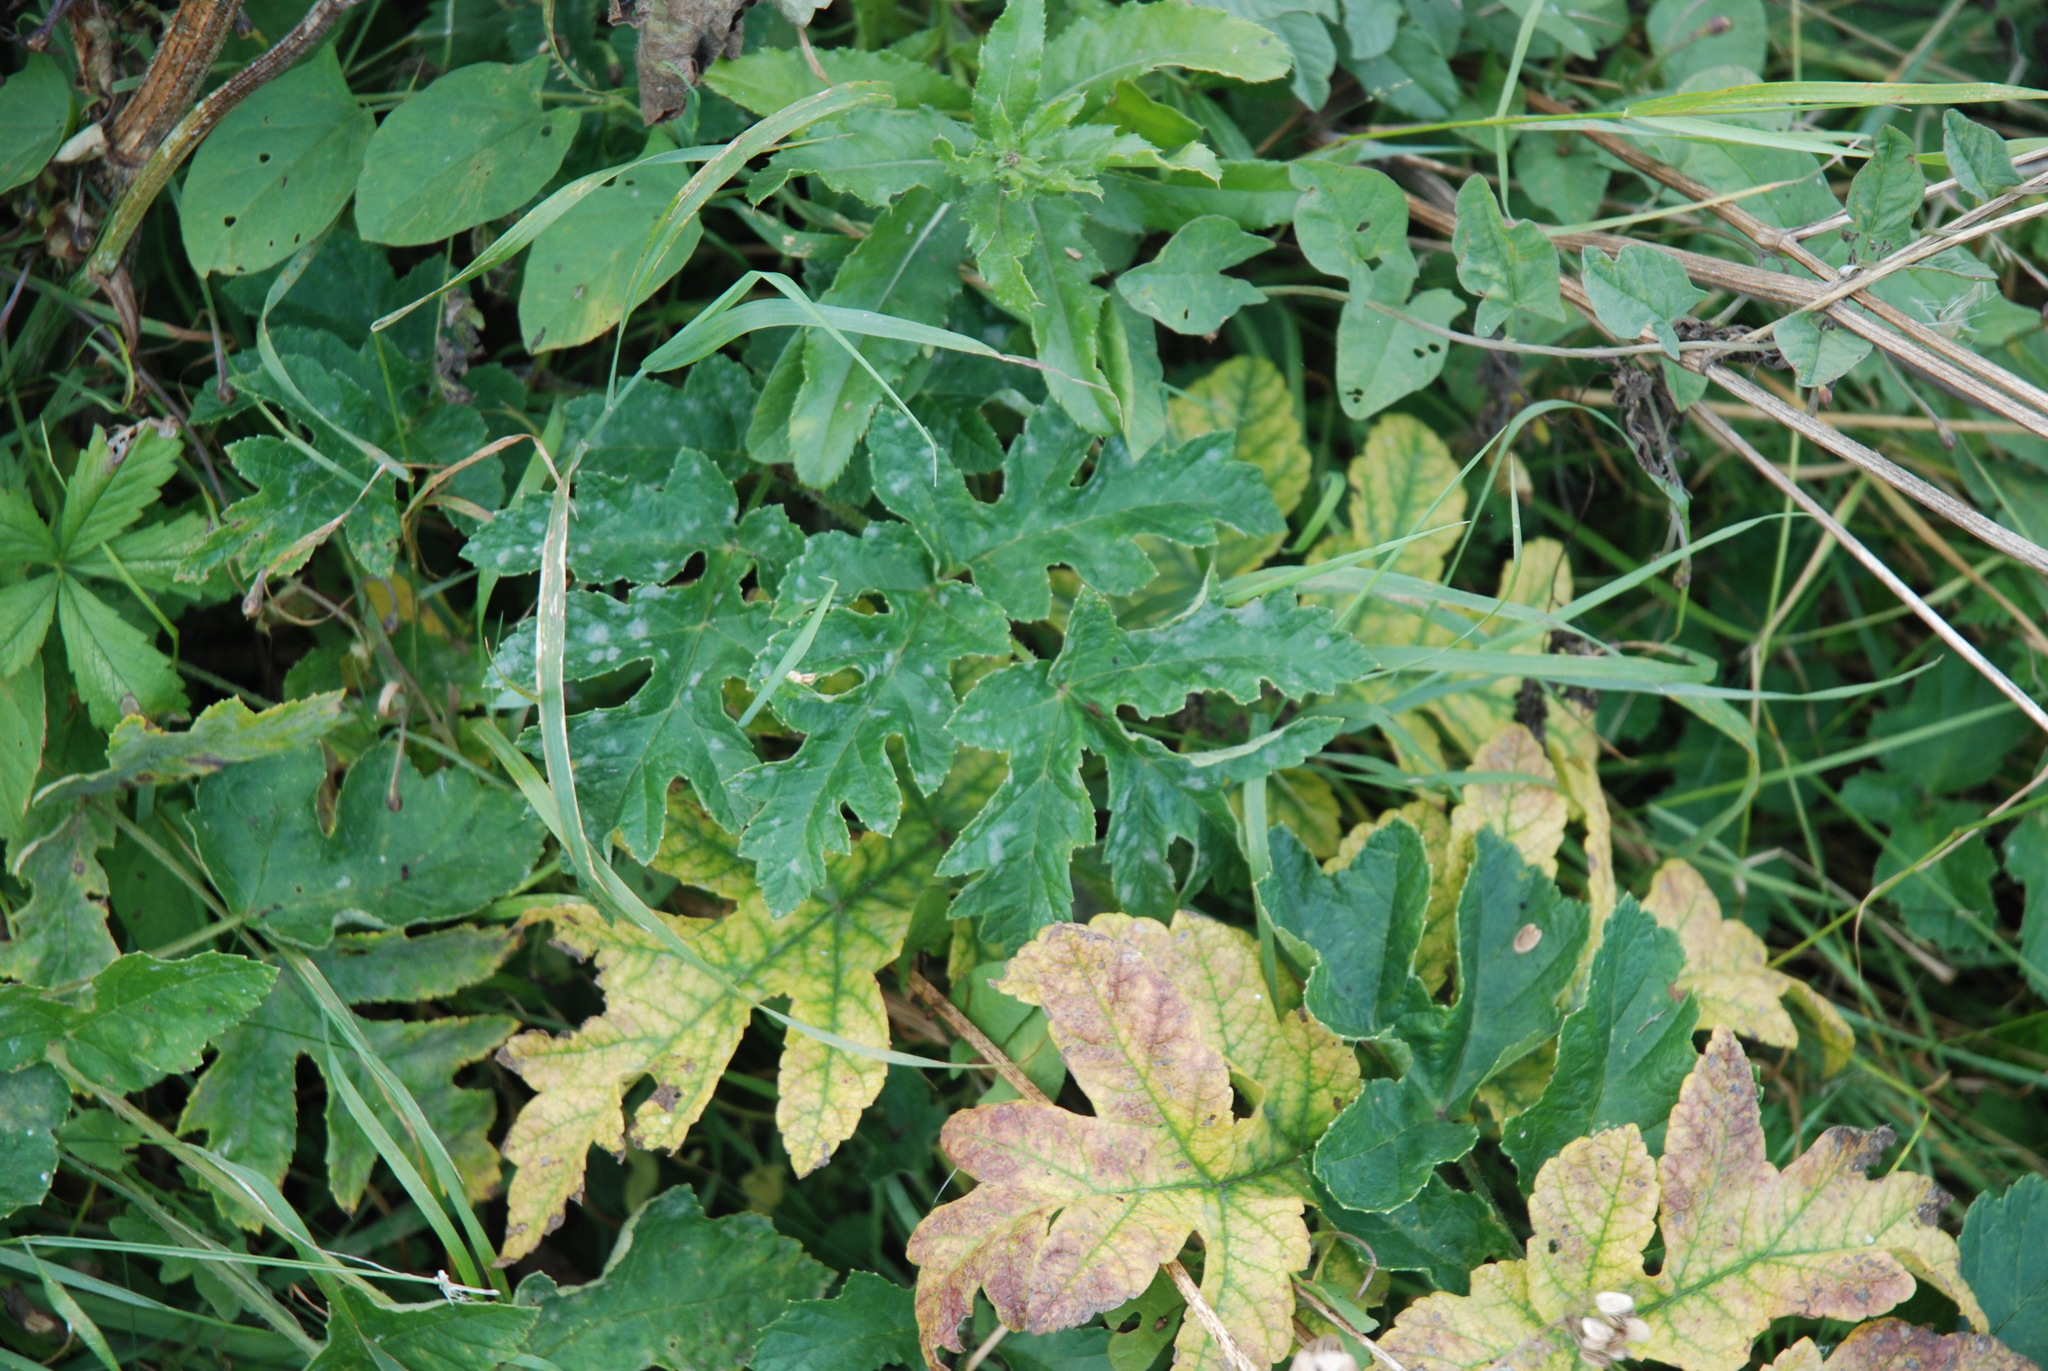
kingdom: Plantae
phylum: Tracheophyta
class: Magnoliopsida
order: Apiales
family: Apiaceae
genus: Heracleum
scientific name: Heracleum sphondylium
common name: Hogweed
